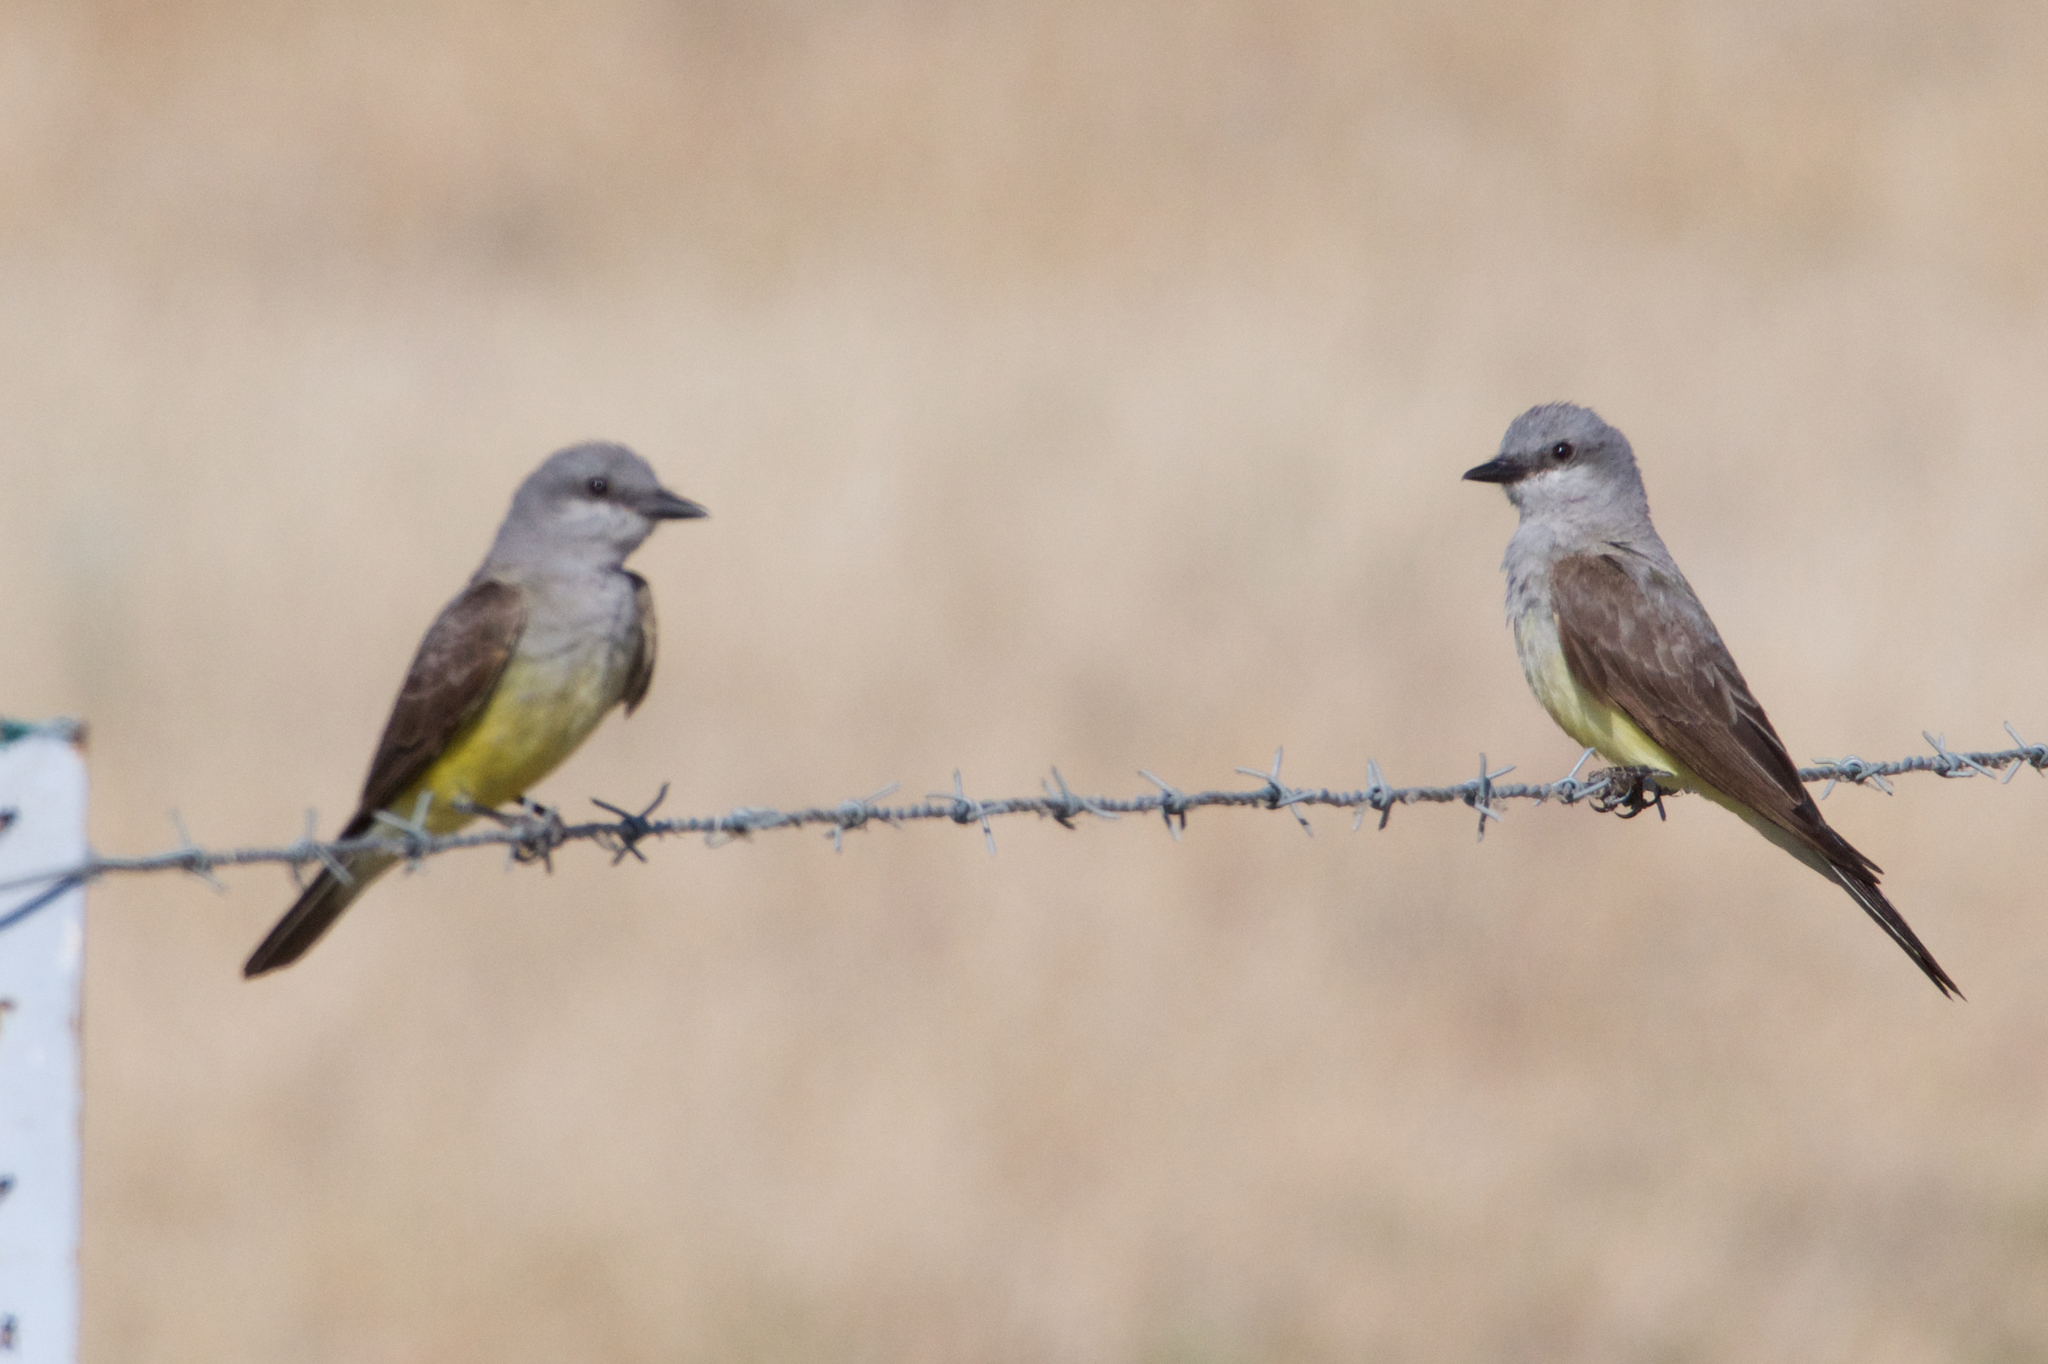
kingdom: Animalia
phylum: Chordata
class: Aves
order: Passeriformes
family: Tyrannidae
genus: Tyrannus
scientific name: Tyrannus verticalis
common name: Western kingbird
